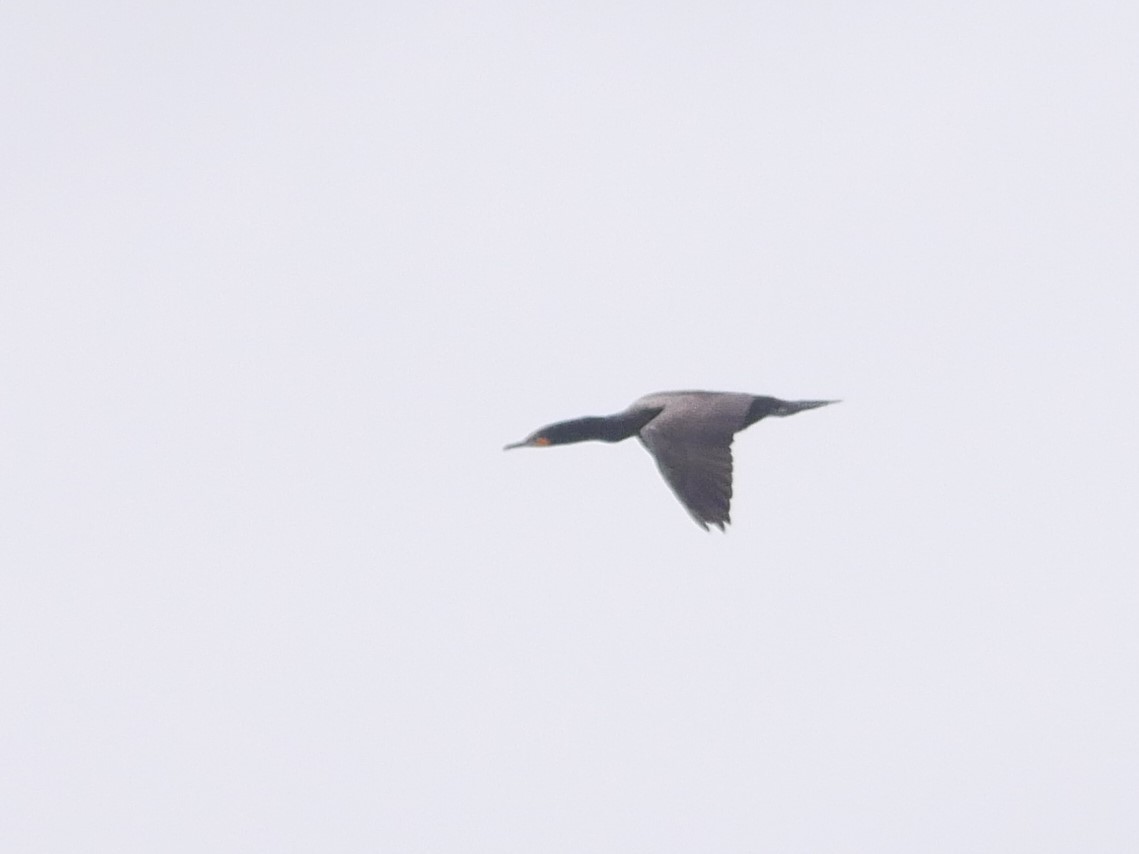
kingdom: Animalia
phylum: Chordata
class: Aves
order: Suliformes
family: Phalacrocoracidae
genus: Phalacrocorax
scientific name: Phalacrocorax auritus
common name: Double-crested cormorant
